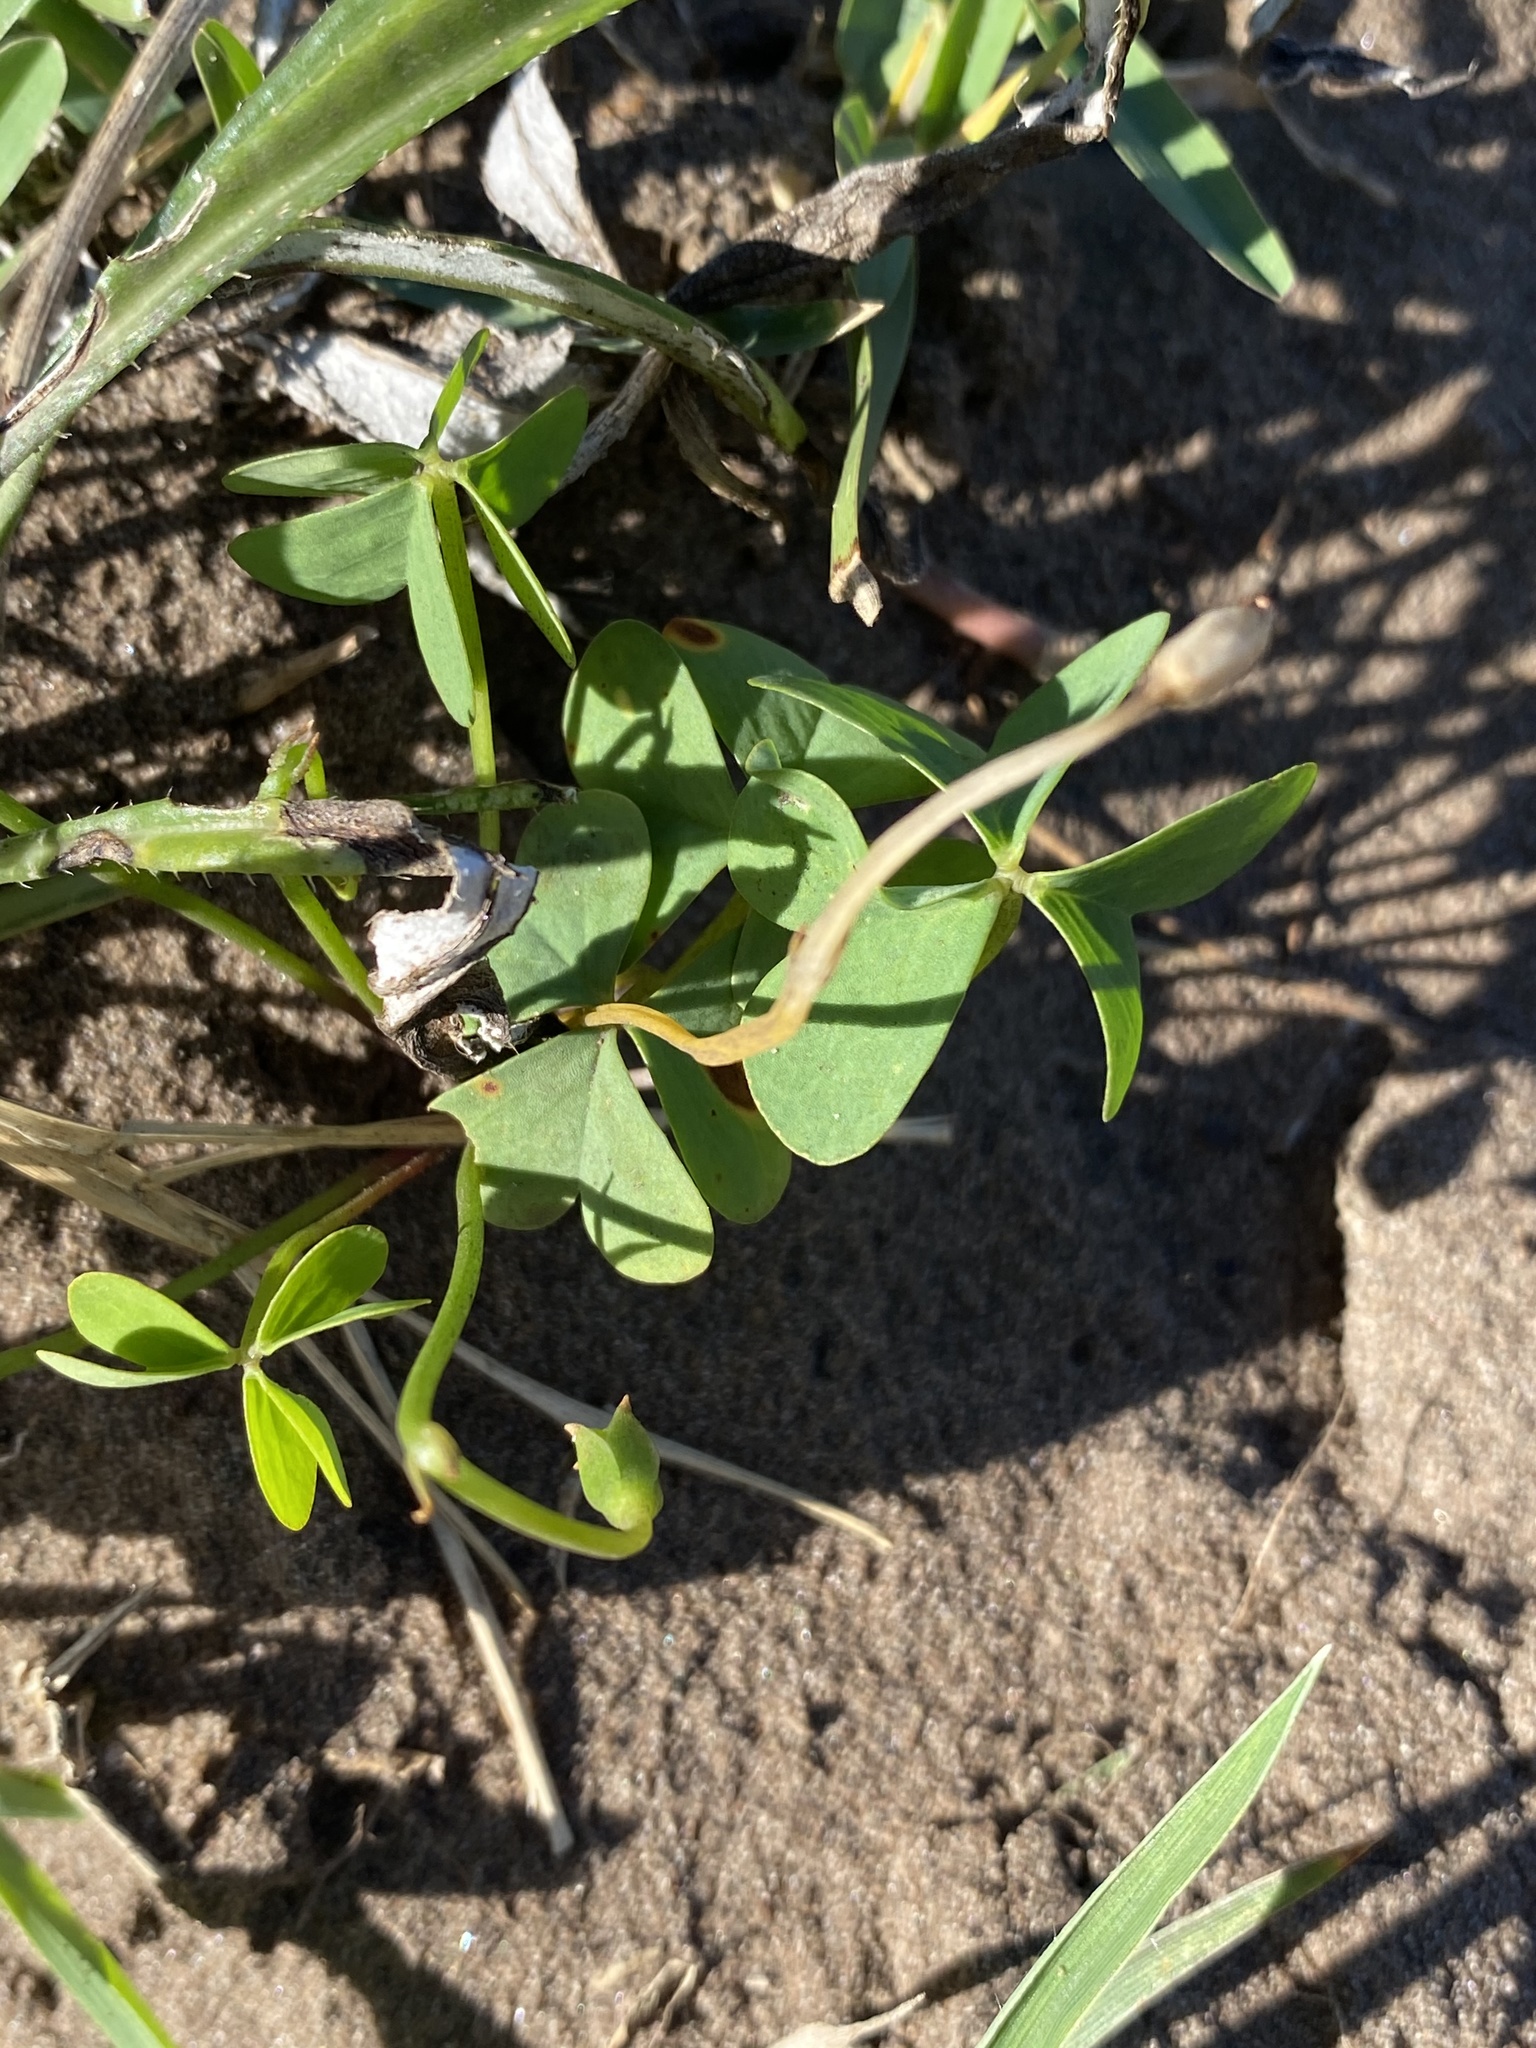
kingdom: Plantae
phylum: Tracheophyta
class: Magnoliopsida
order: Oxalidales
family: Oxalidaceae
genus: Oxalis
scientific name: Oxalis smithiana
